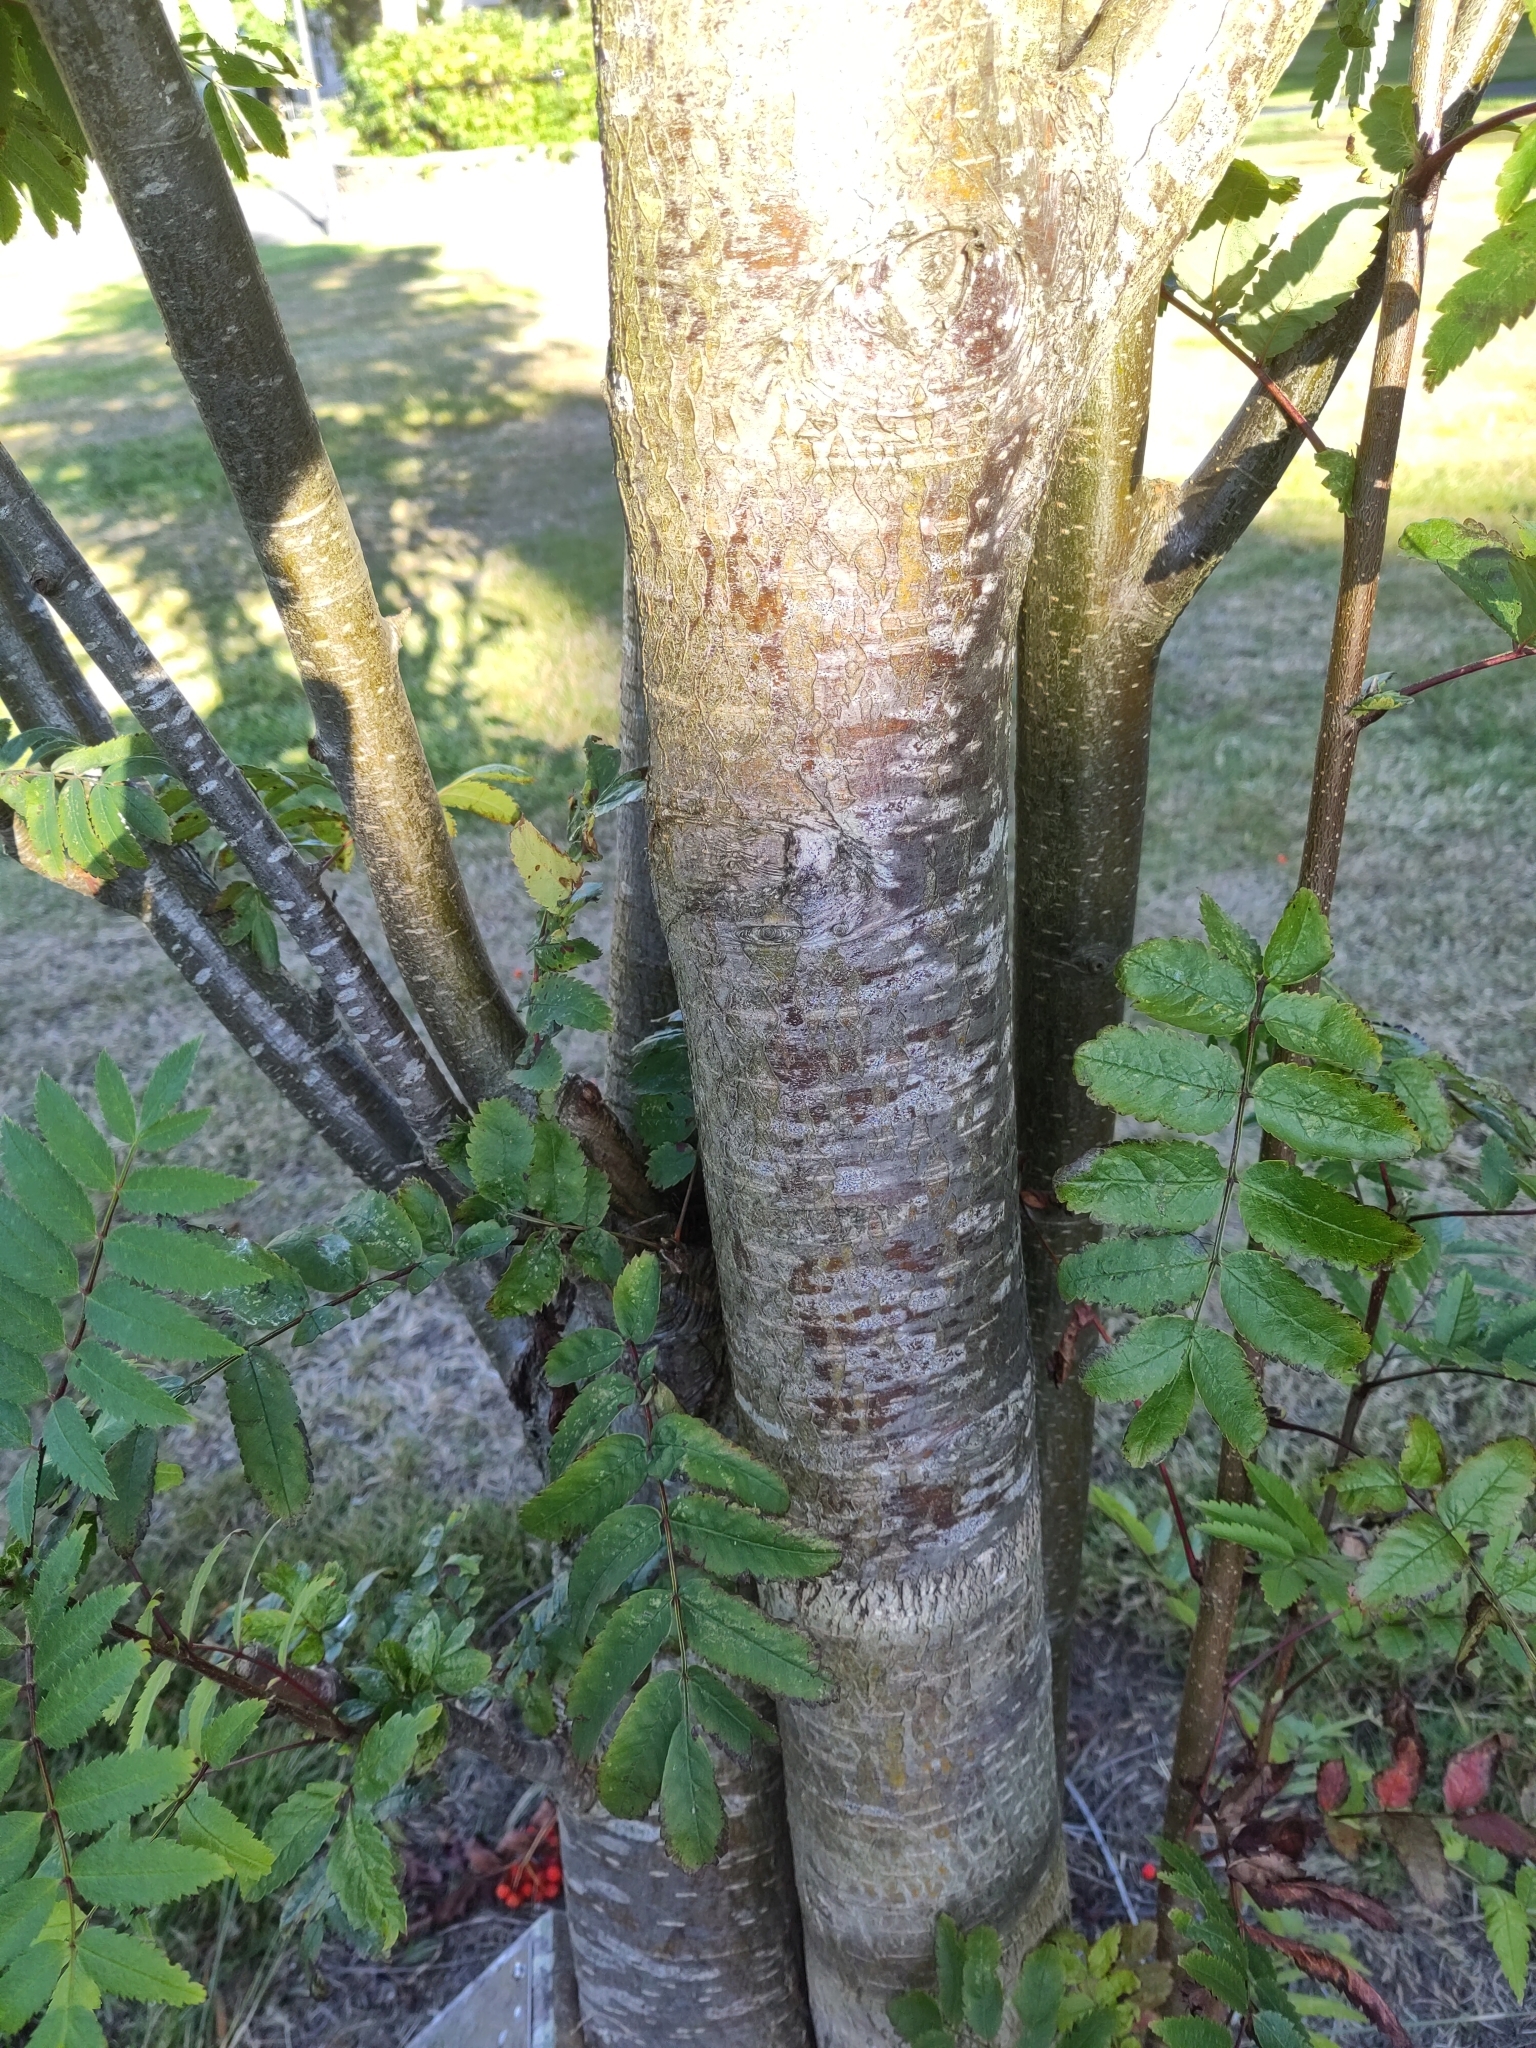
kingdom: Plantae
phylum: Tracheophyta
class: Magnoliopsida
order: Rosales
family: Rosaceae
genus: Sorbus
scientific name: Sorbus aucuparia
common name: Rowan
